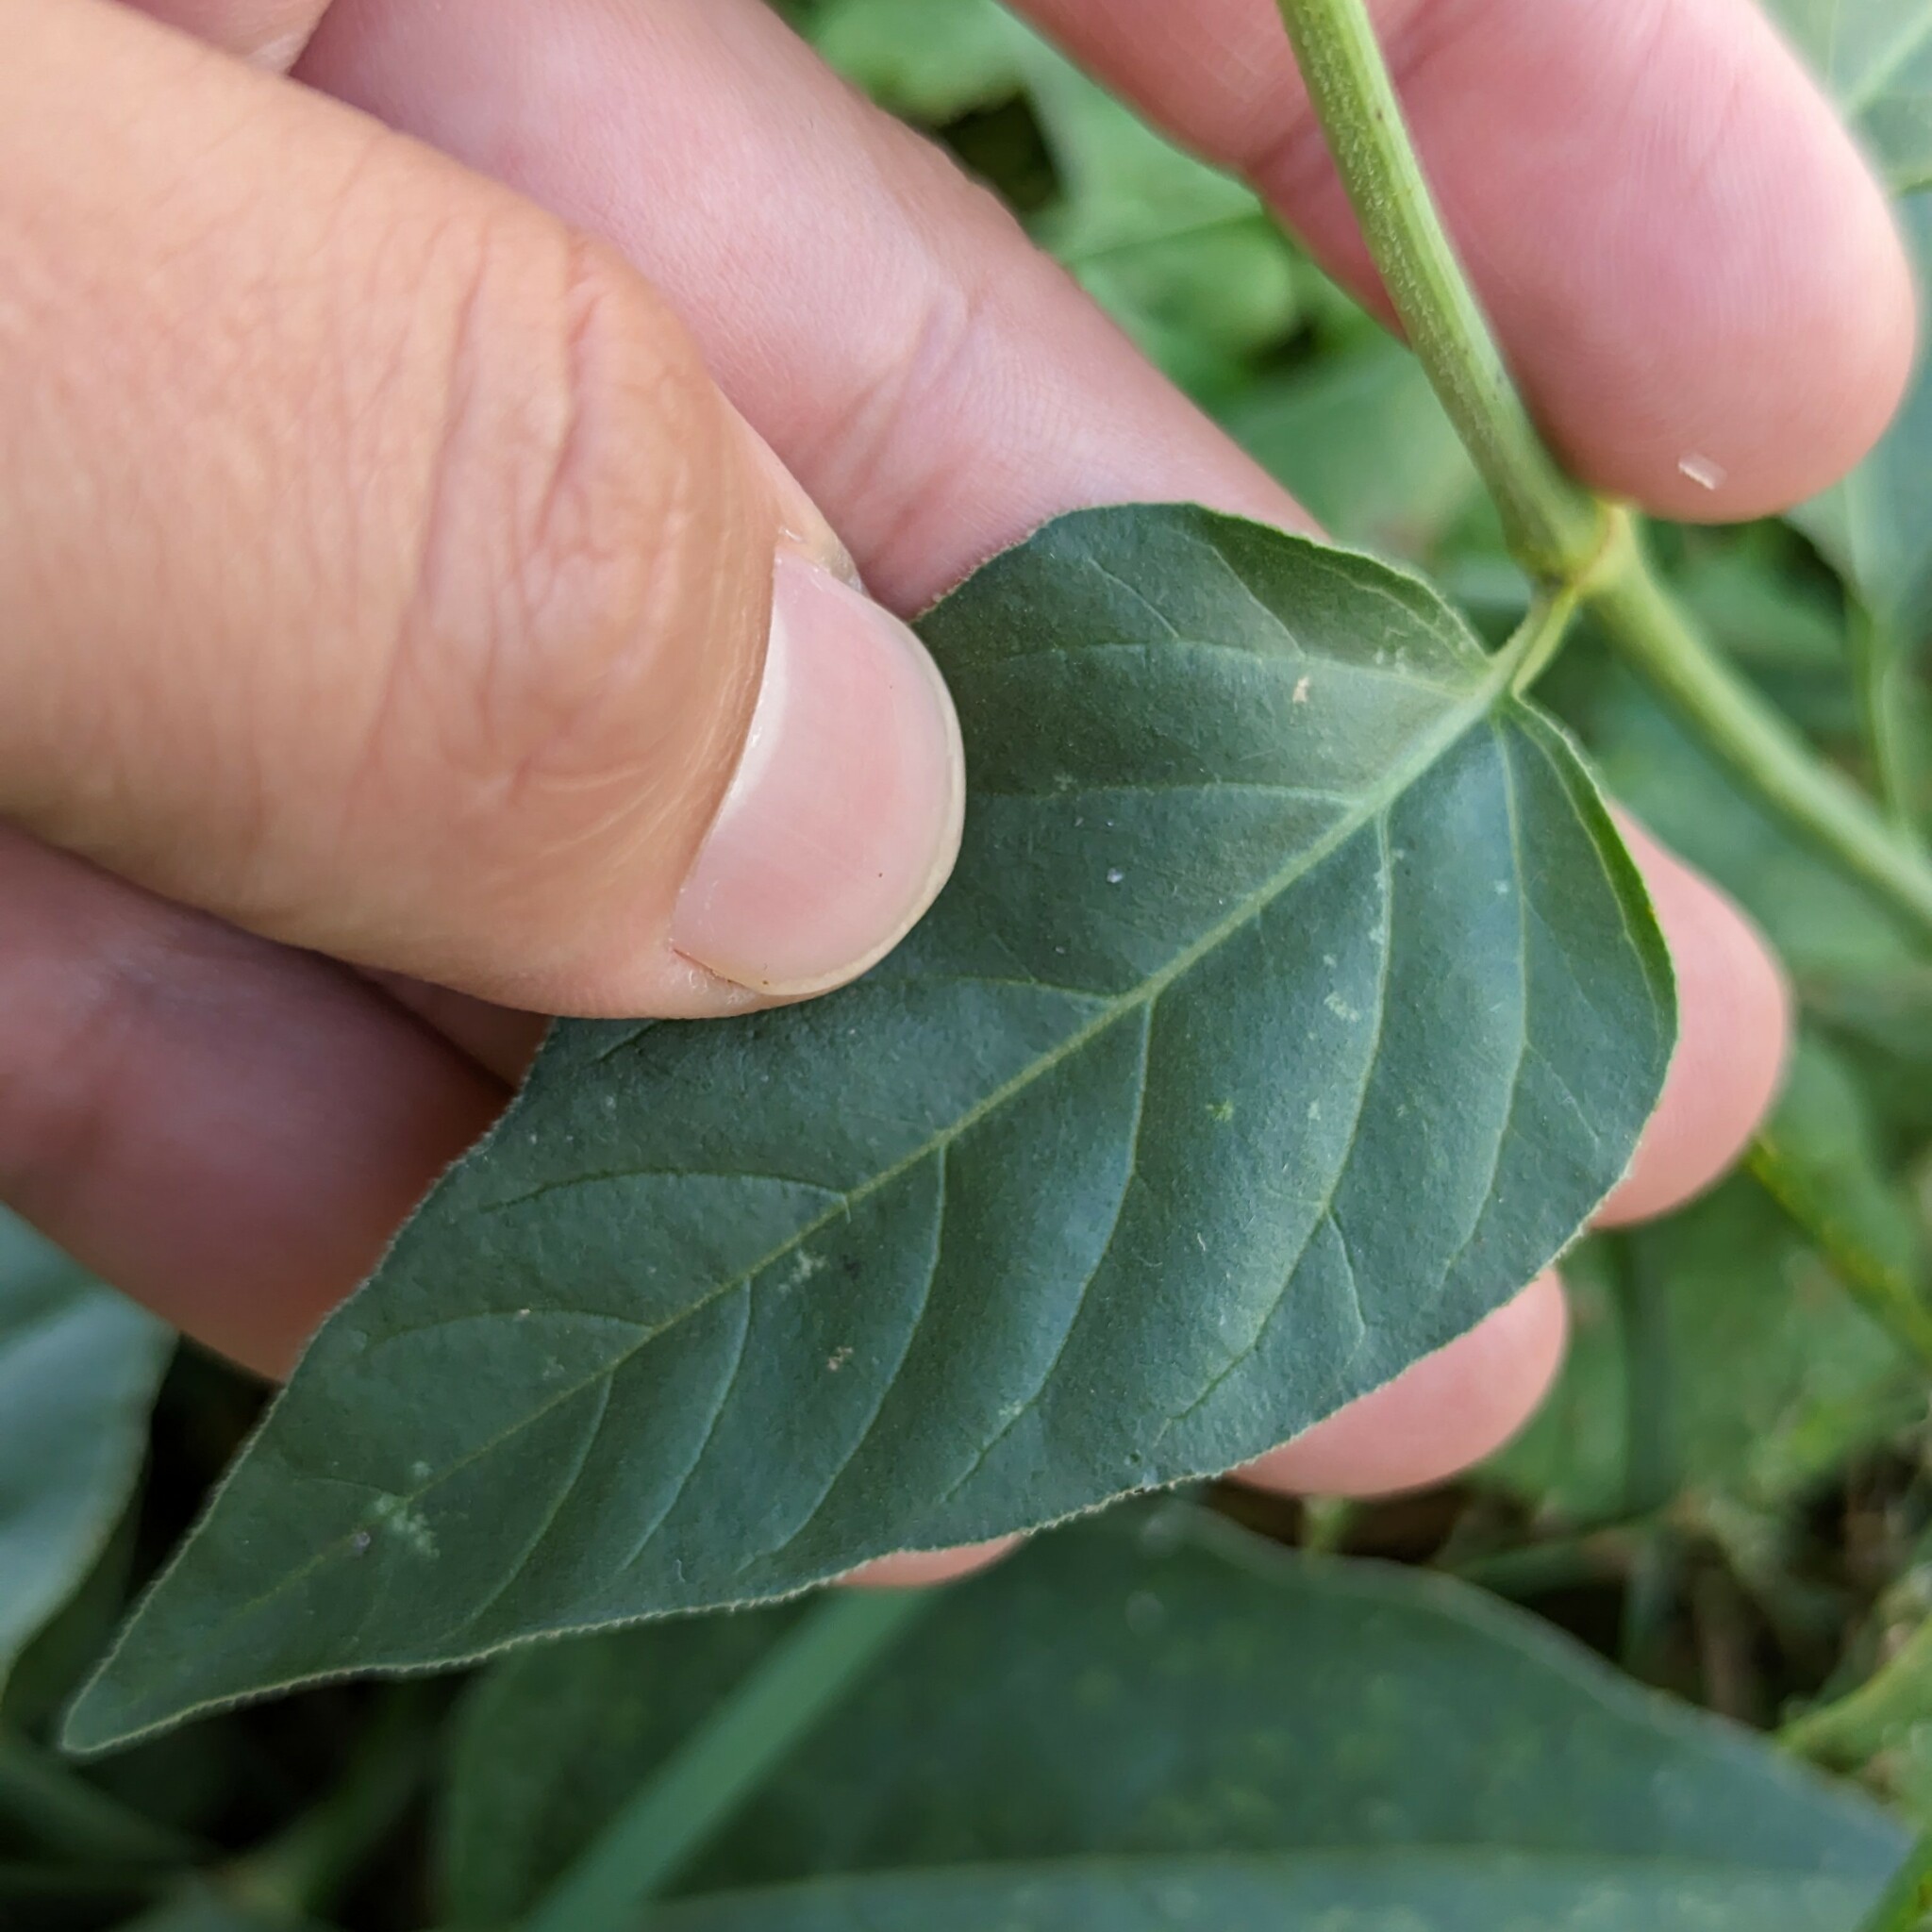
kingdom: Plantae
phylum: Tracheophyta
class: Magnoliopsida
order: Caryophyllales
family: Nyctaginaceae
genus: Mirabilis
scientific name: Mirabilis nyctaginea
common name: Umbrella wort
